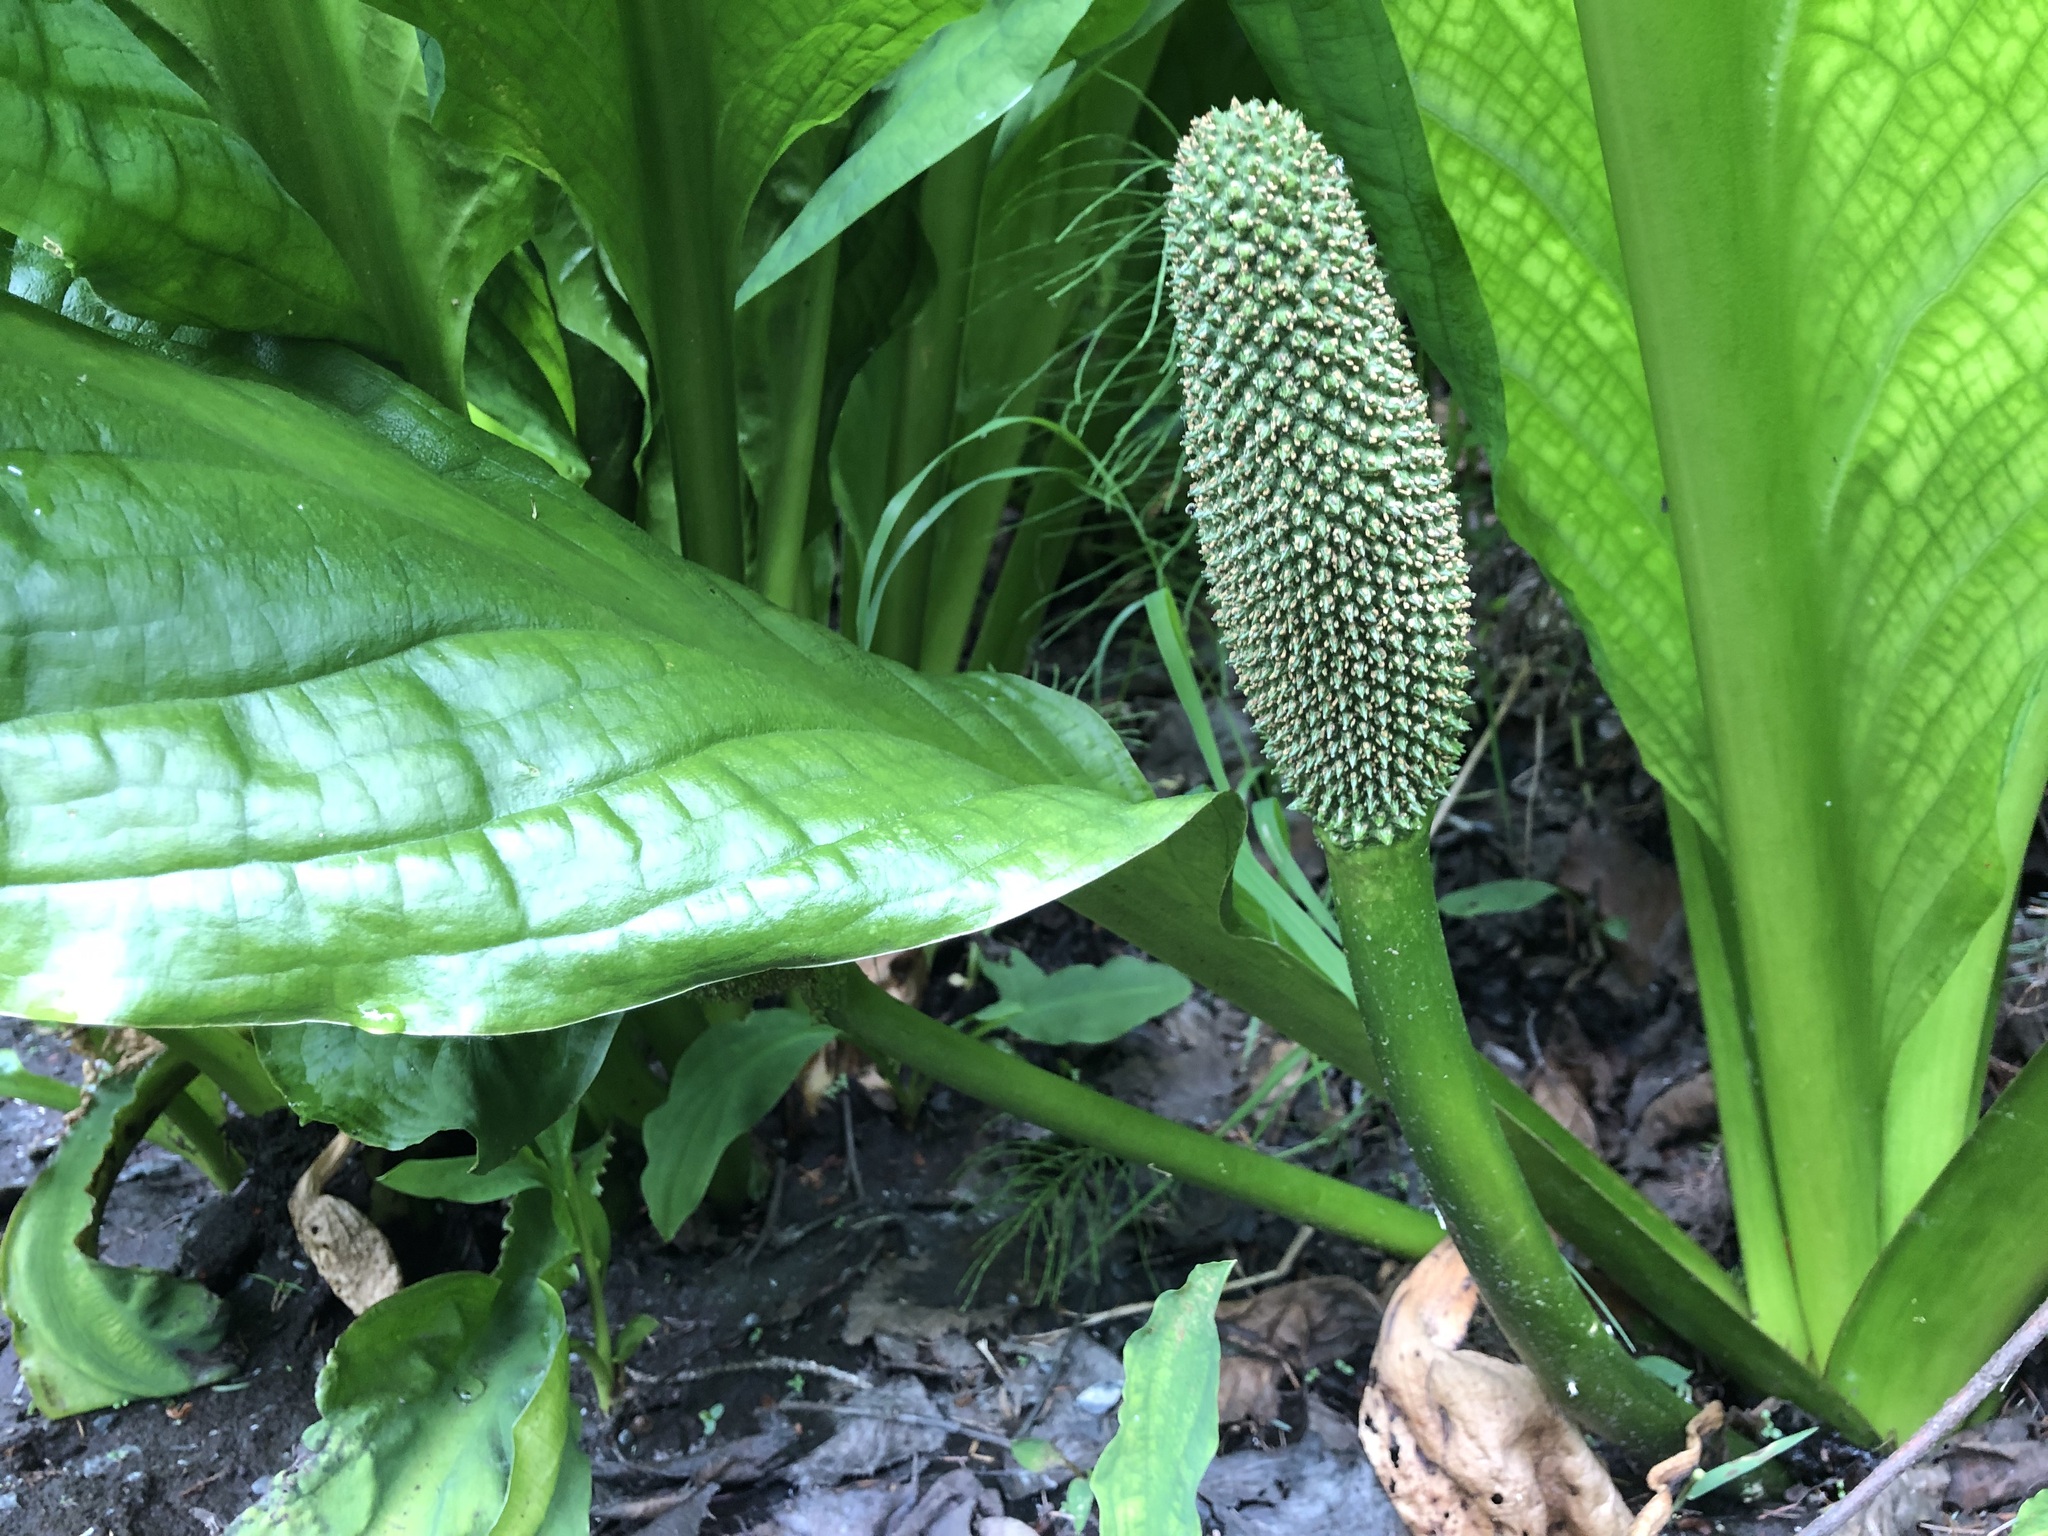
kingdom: Plantae
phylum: Tracheophyta
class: Liliopsida
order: Alismatales
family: Araceae
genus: Lysichiton
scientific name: Lysichiton americanus
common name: American skunk cabbage
